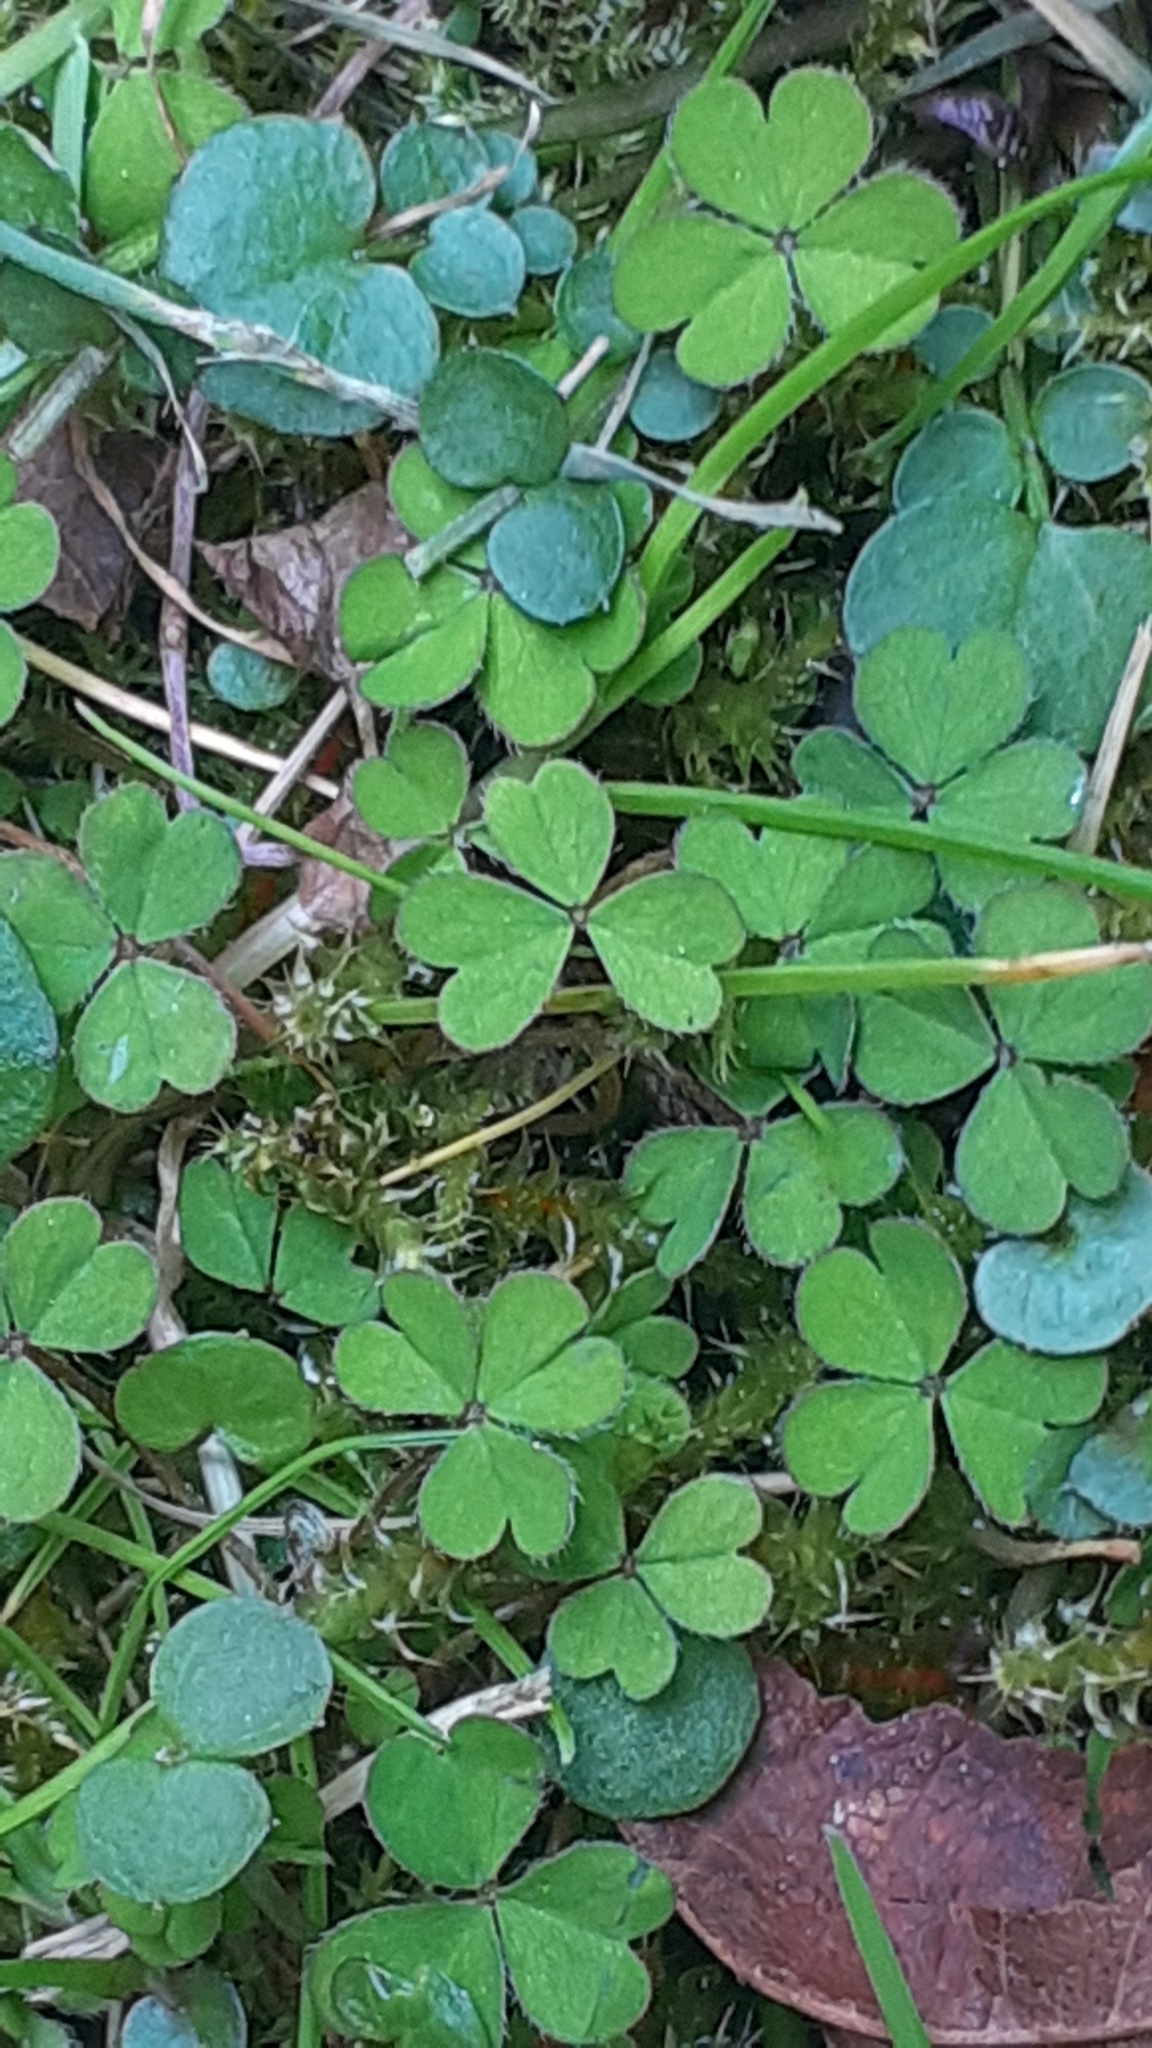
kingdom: Plantae
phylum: Tracheophyta
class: Magnoliopsida
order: Oxalidales
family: Oxalidaceae
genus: Oxalis
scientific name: Oxalis exilis
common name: Least yellow-sorrel
